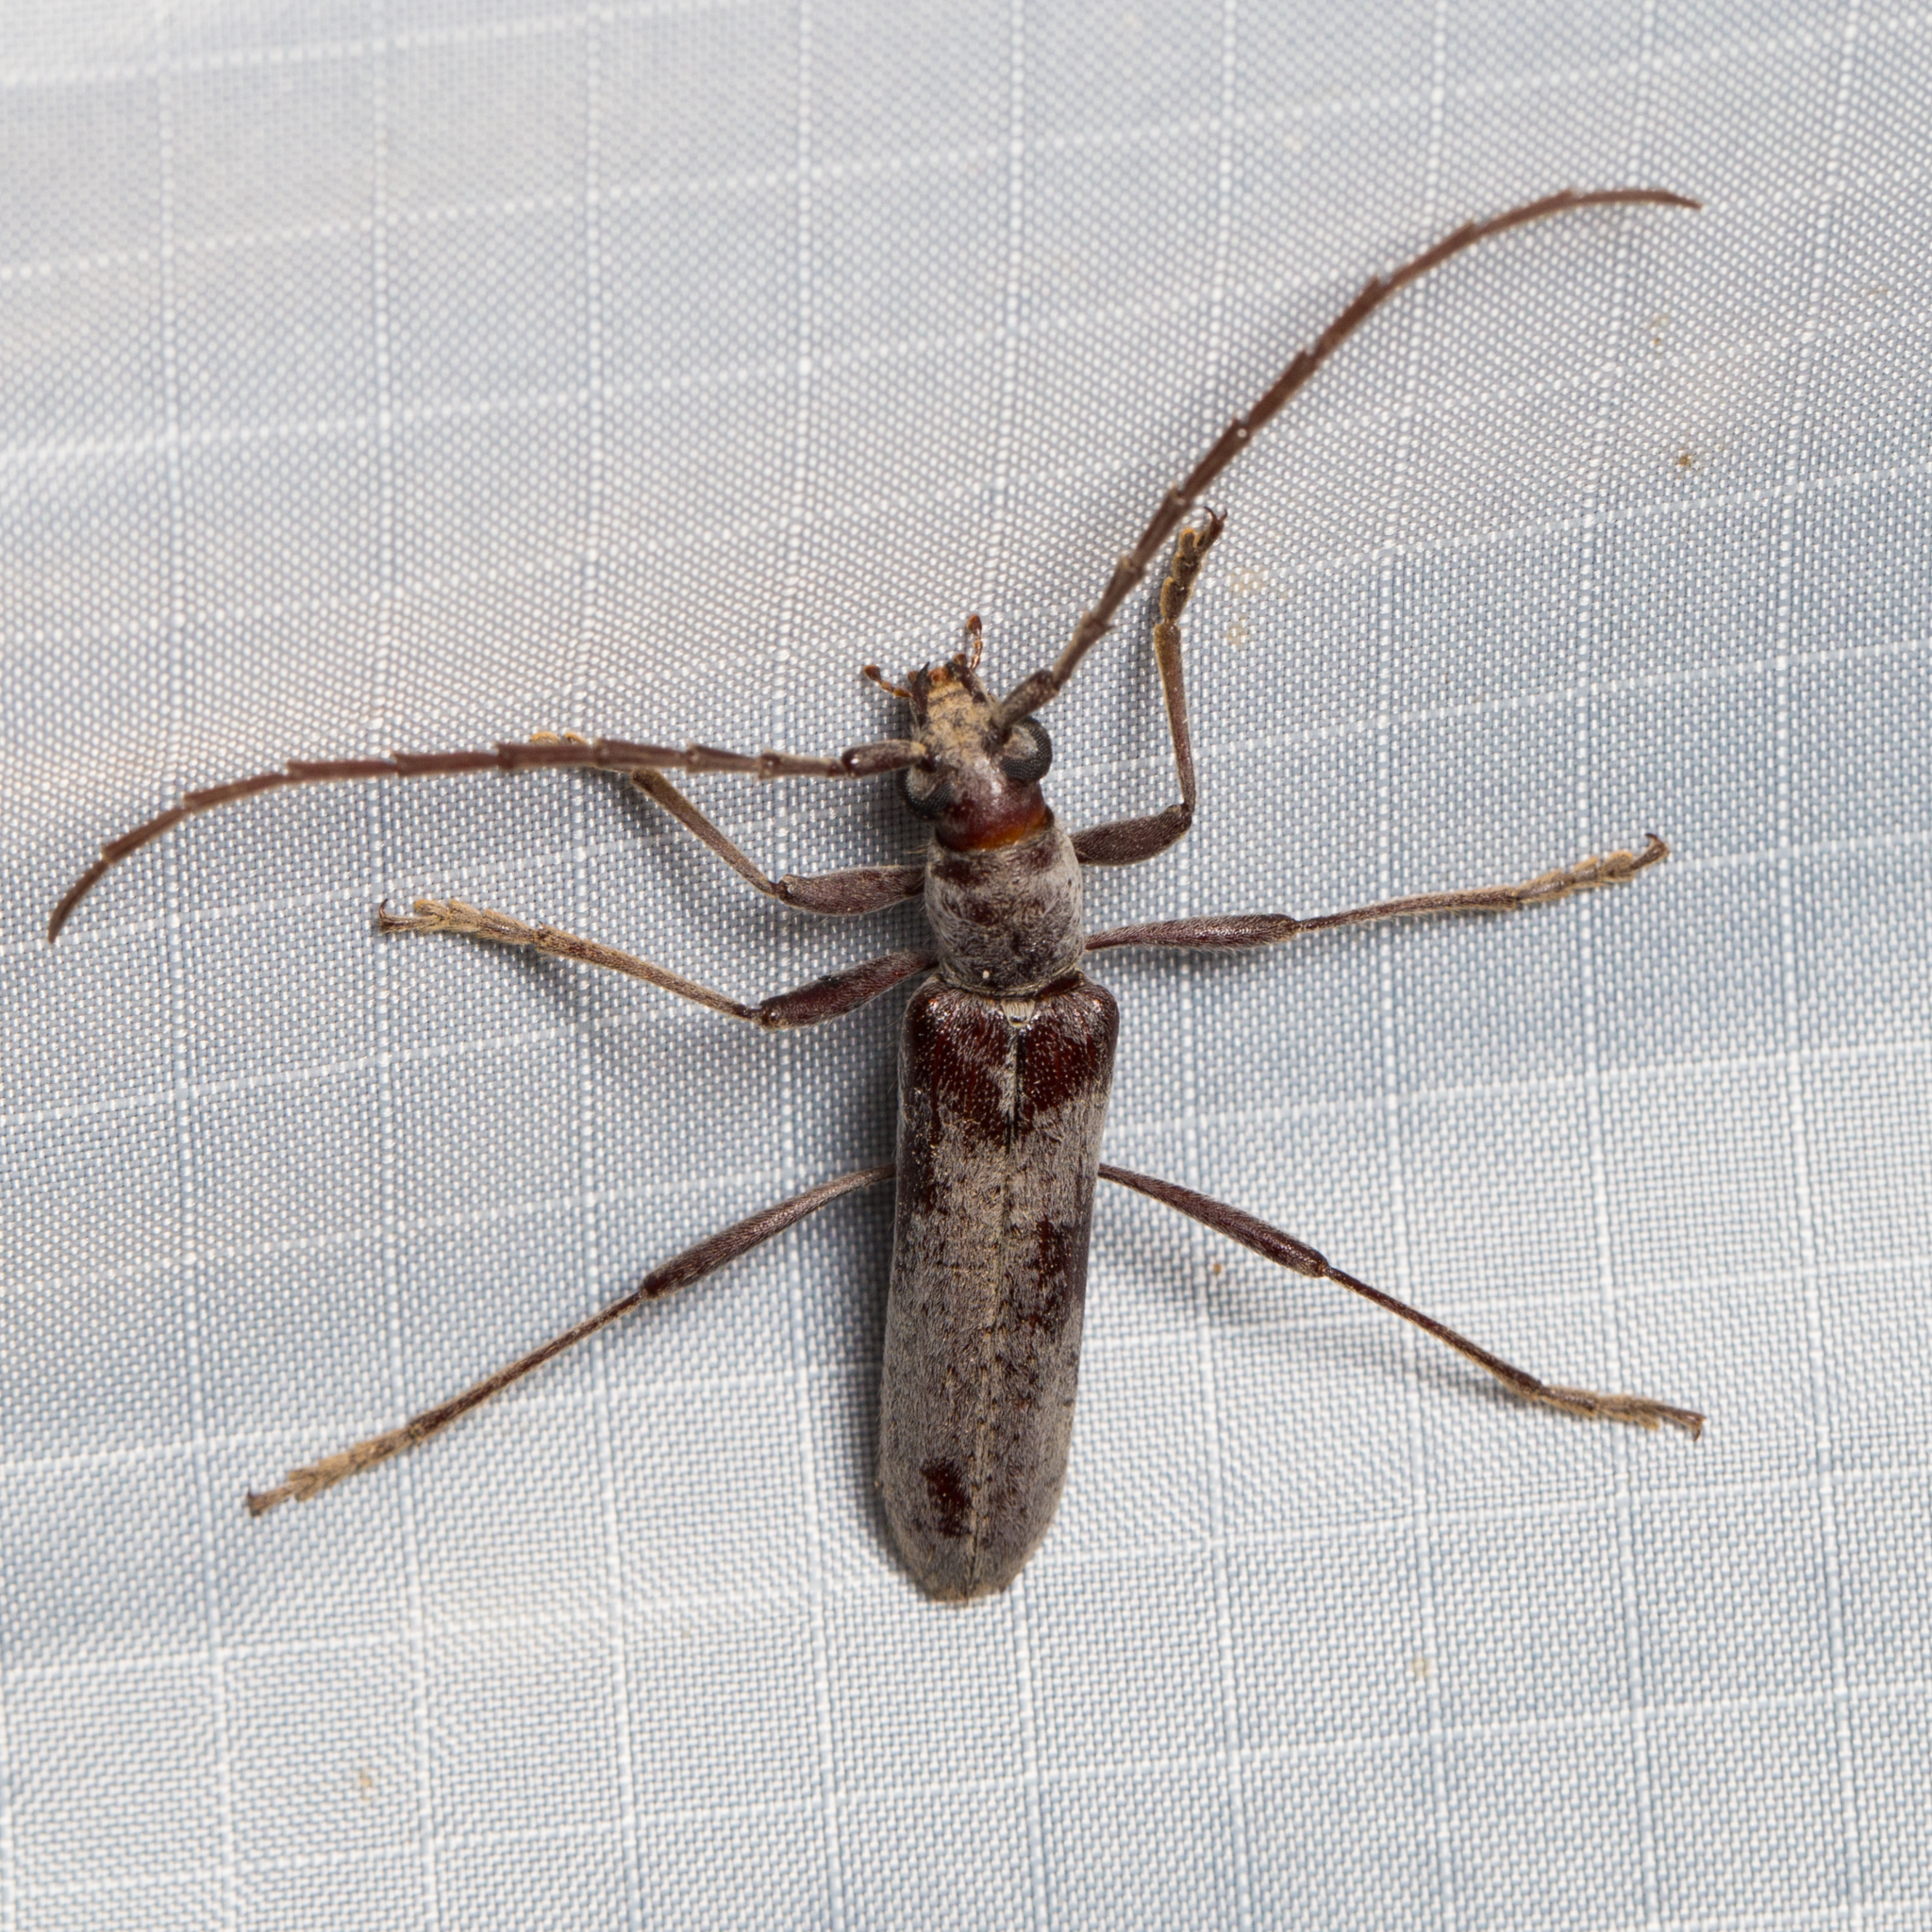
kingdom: Animalia
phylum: Arthropoda
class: Insecta
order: Coleoptera
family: Cerambycidae
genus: Aneflus
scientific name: Aneflus sonoranus
